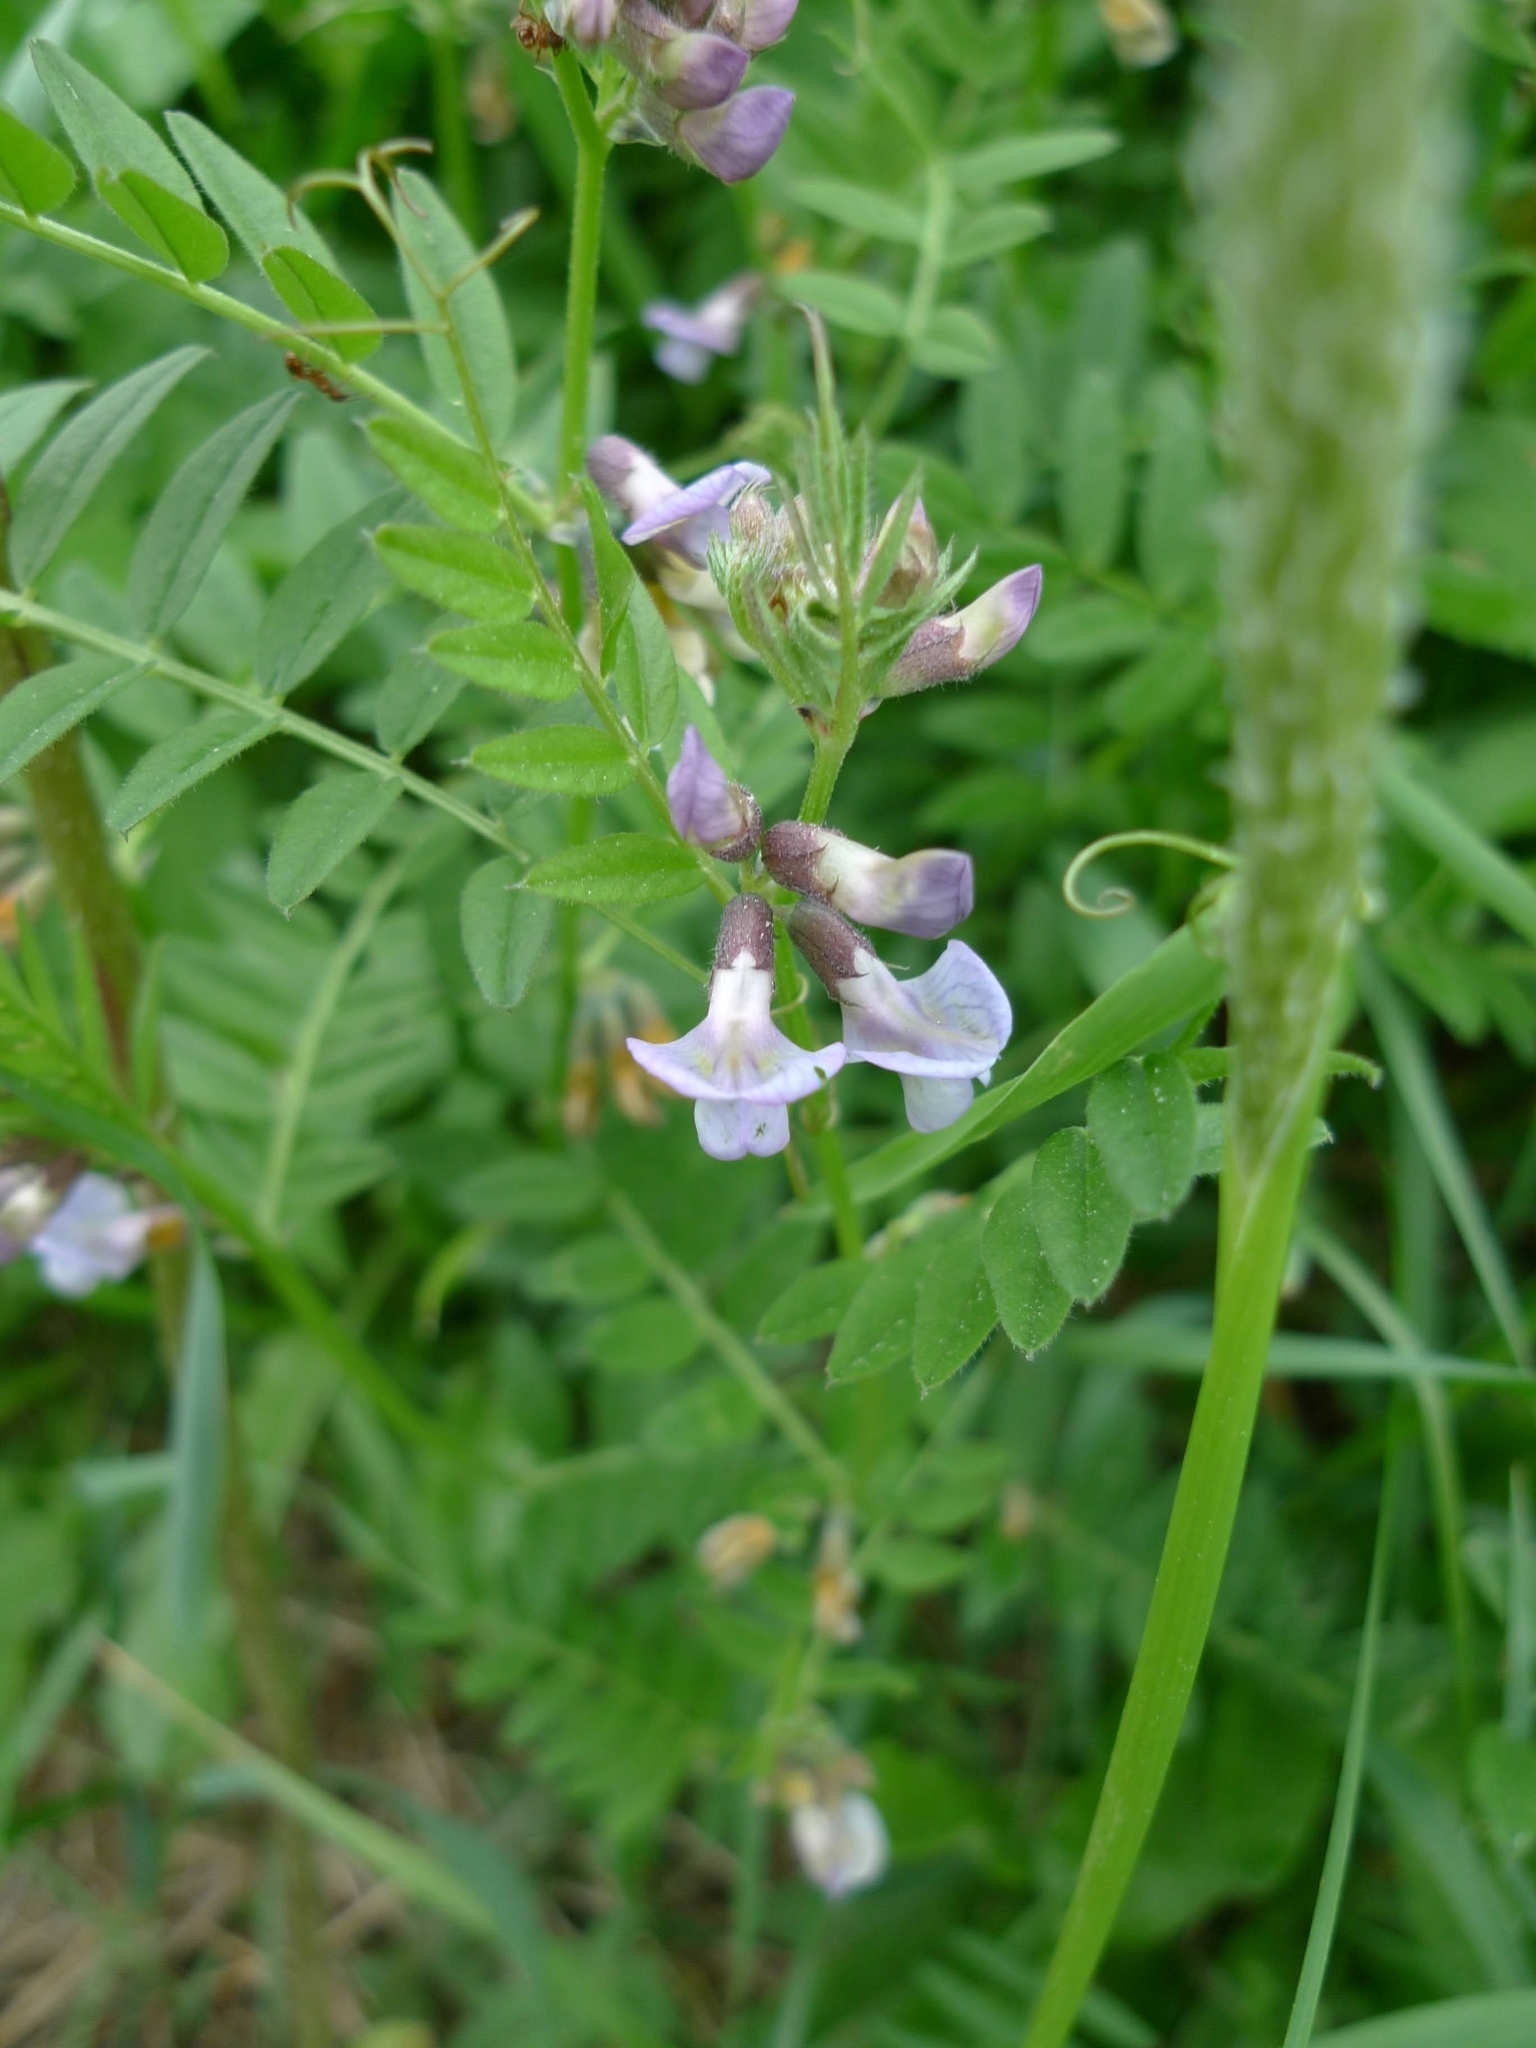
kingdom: Plantae
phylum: Tracheophyta
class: Magnoliopsida
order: Fabales
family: Fabaceae
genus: Vicia
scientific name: Vicia sepium
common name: Bush vetch
